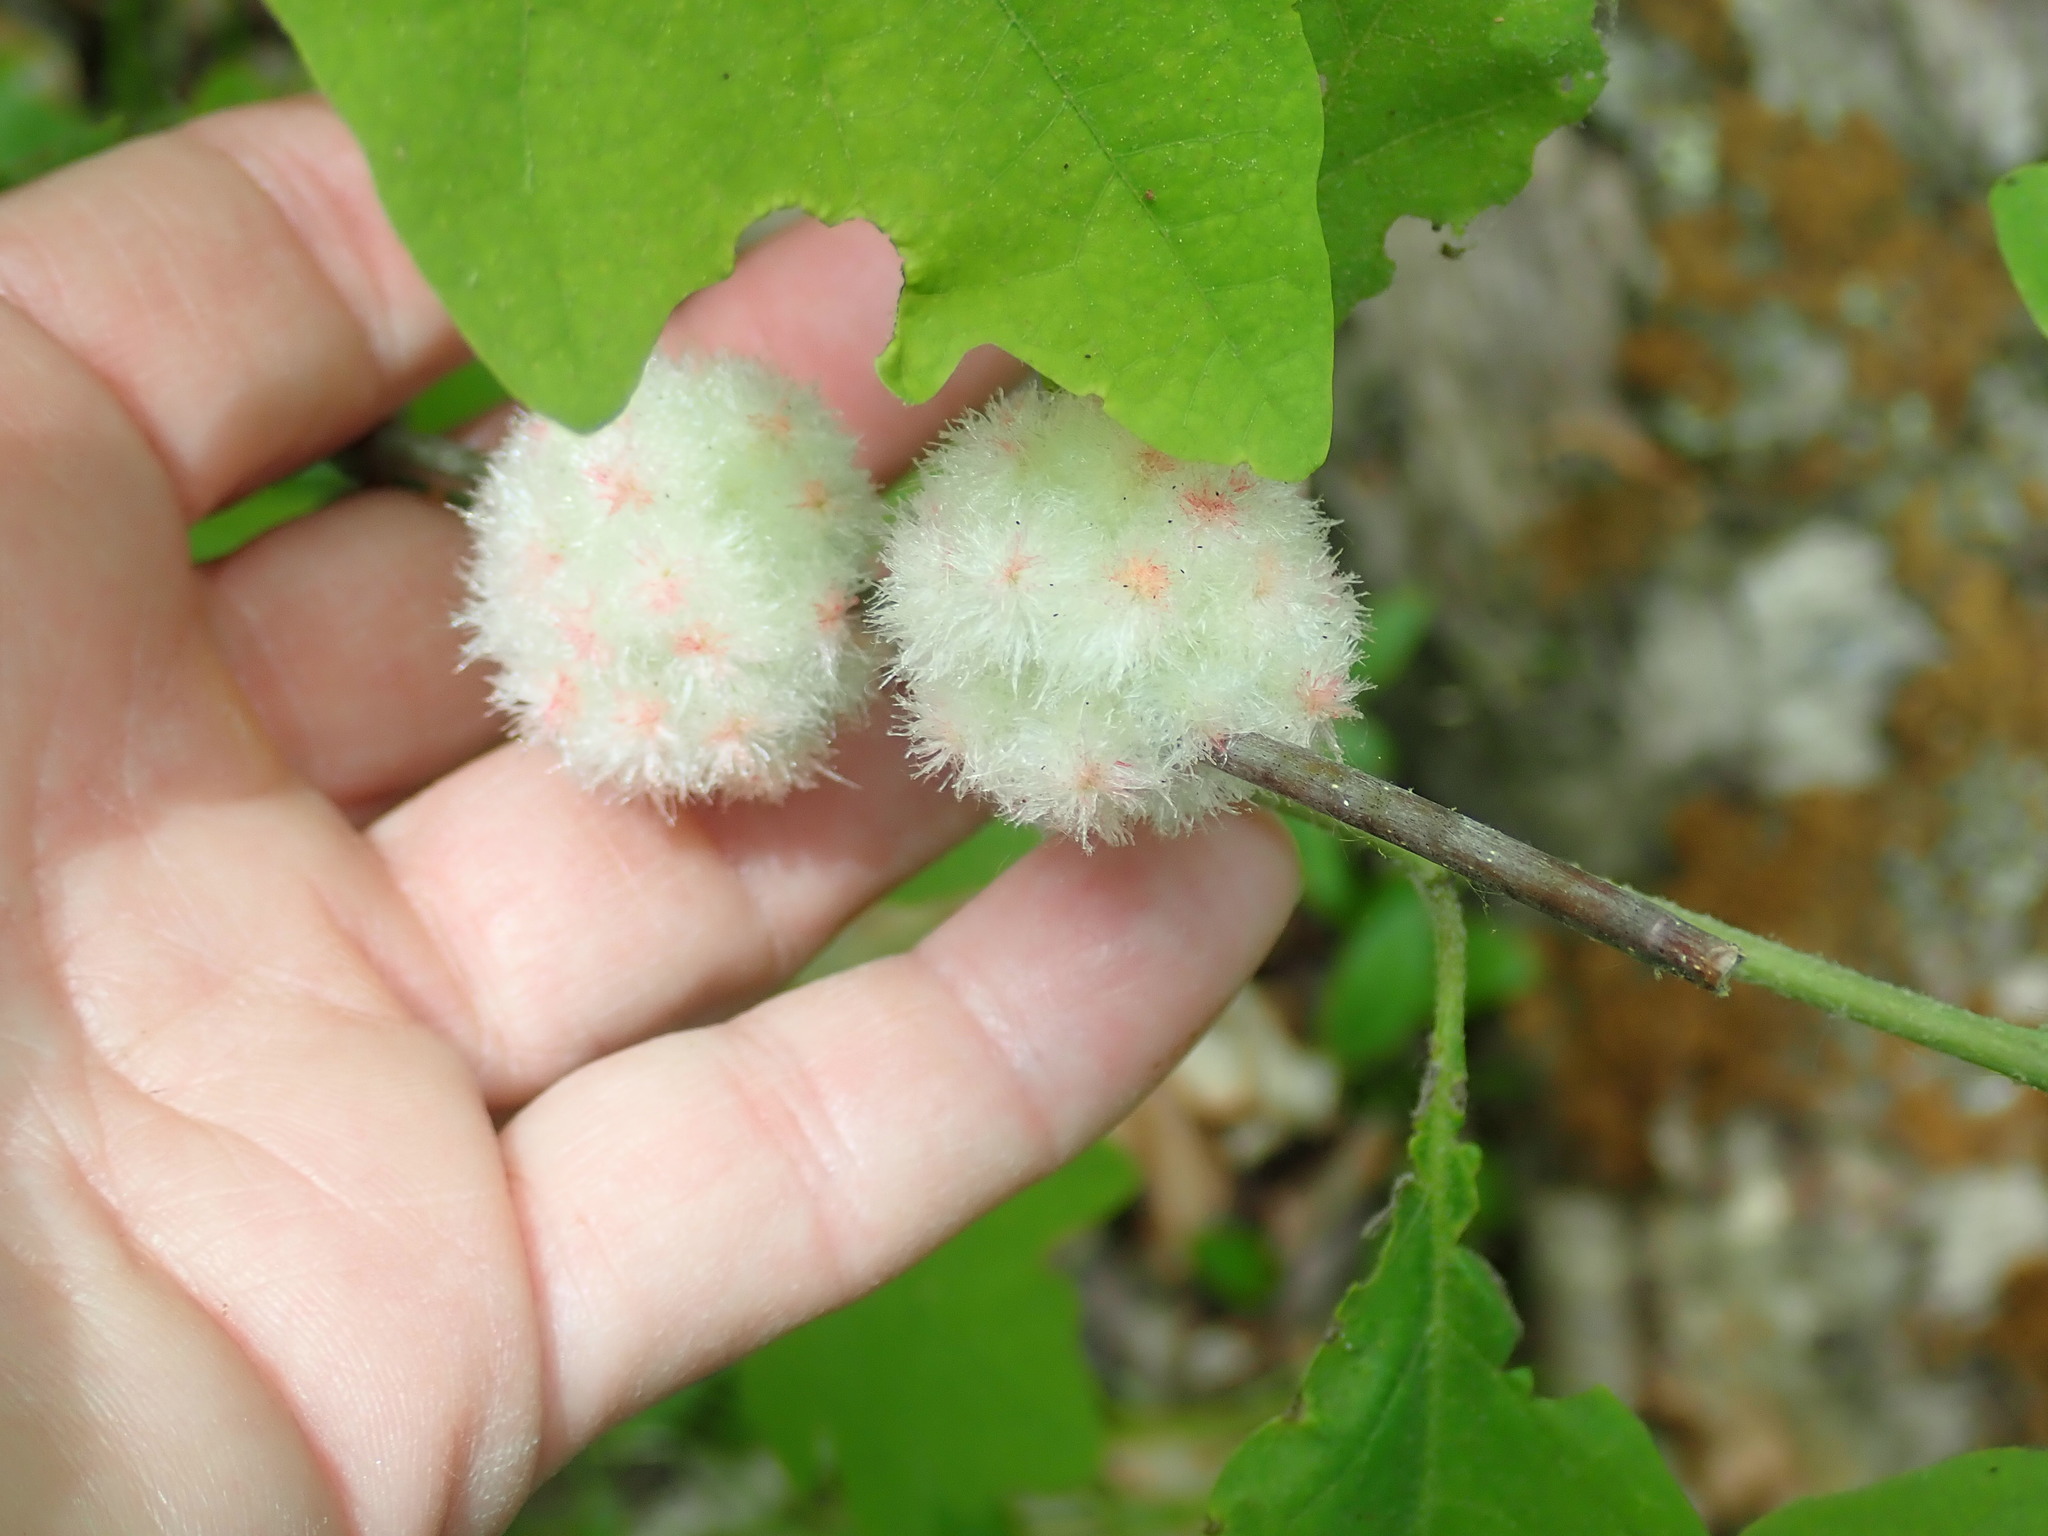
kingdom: Animalia
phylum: Arthropoda
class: Insecta
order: Hymenoptera
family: Cynipidae
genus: Callirhytis
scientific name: Callirhytis
